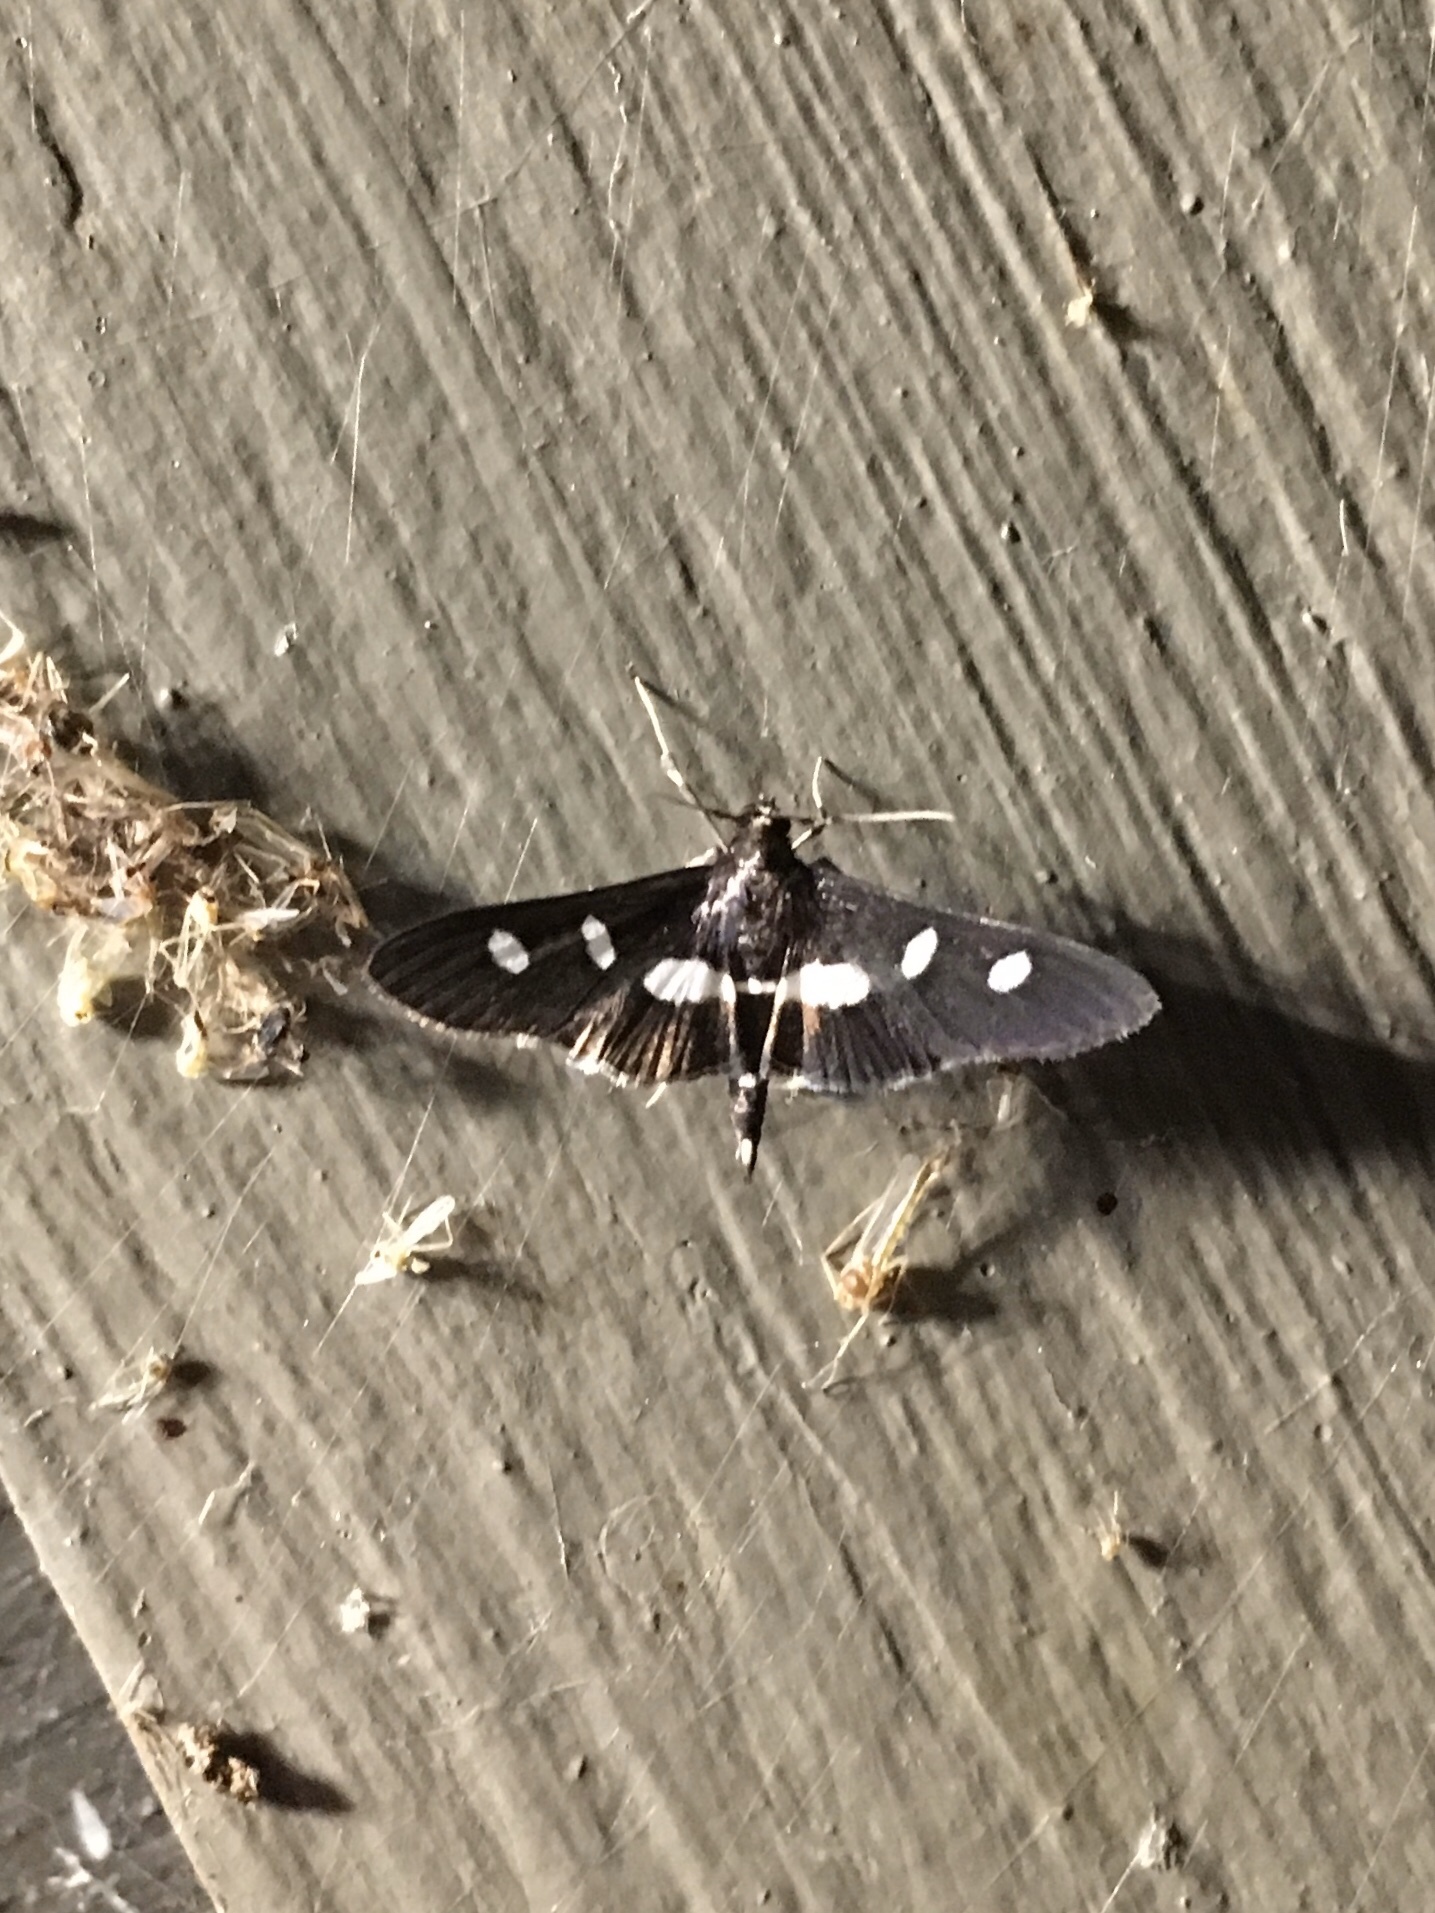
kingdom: Animalia
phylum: Arthropoda
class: Insecta
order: Lepidoptera
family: Crambidae
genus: Desmia
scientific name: Desmia
